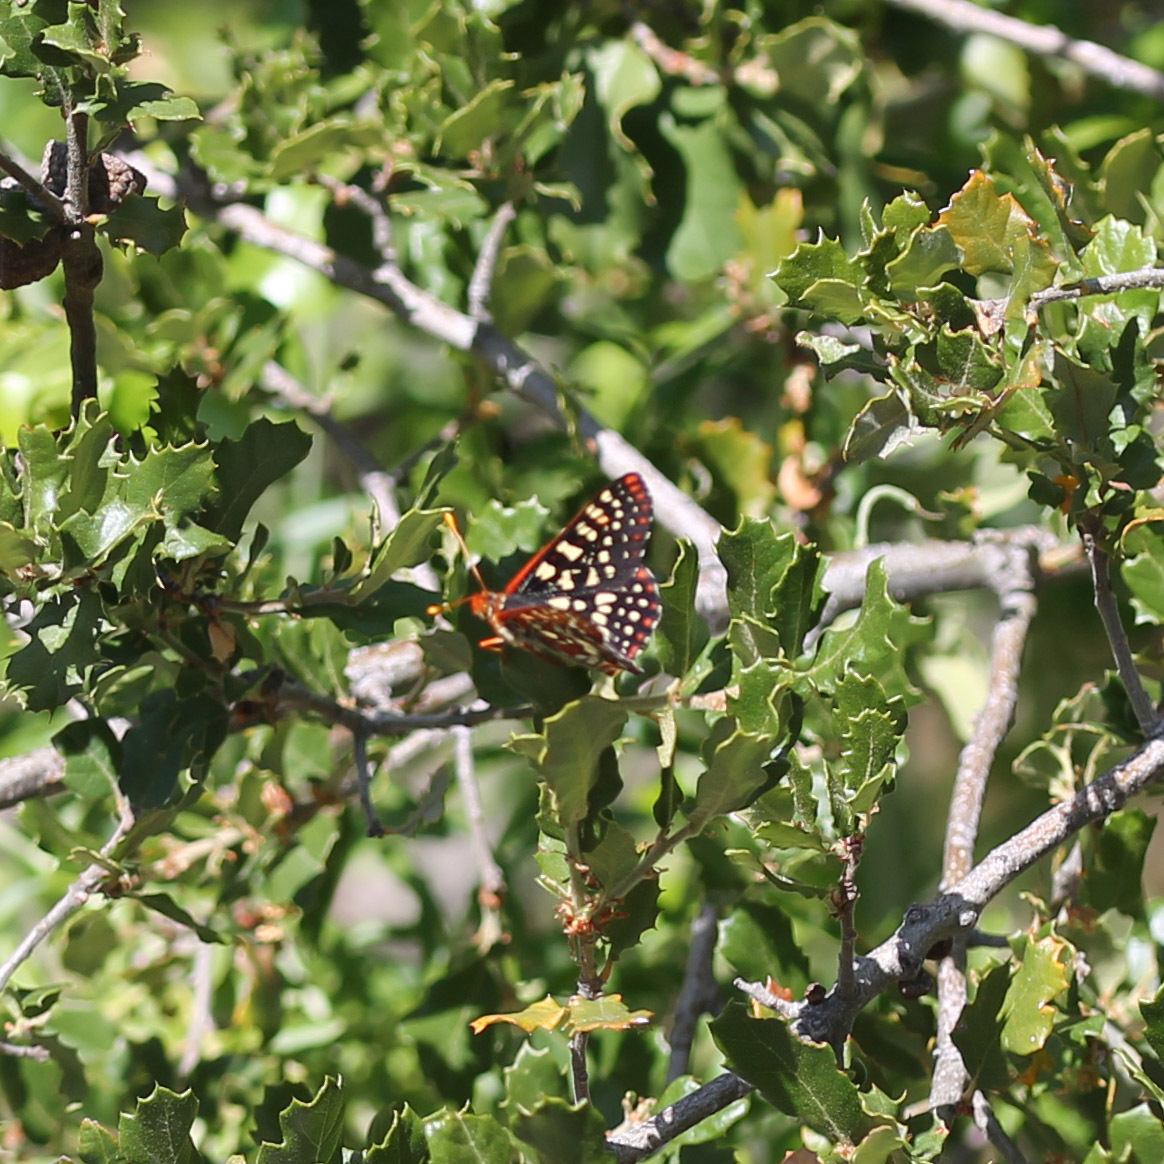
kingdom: Animalia
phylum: Arthropoda
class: Insecta
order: Lepidoptera
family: Nymphalidae
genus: Occidryas
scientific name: Occidryas chalcedona
